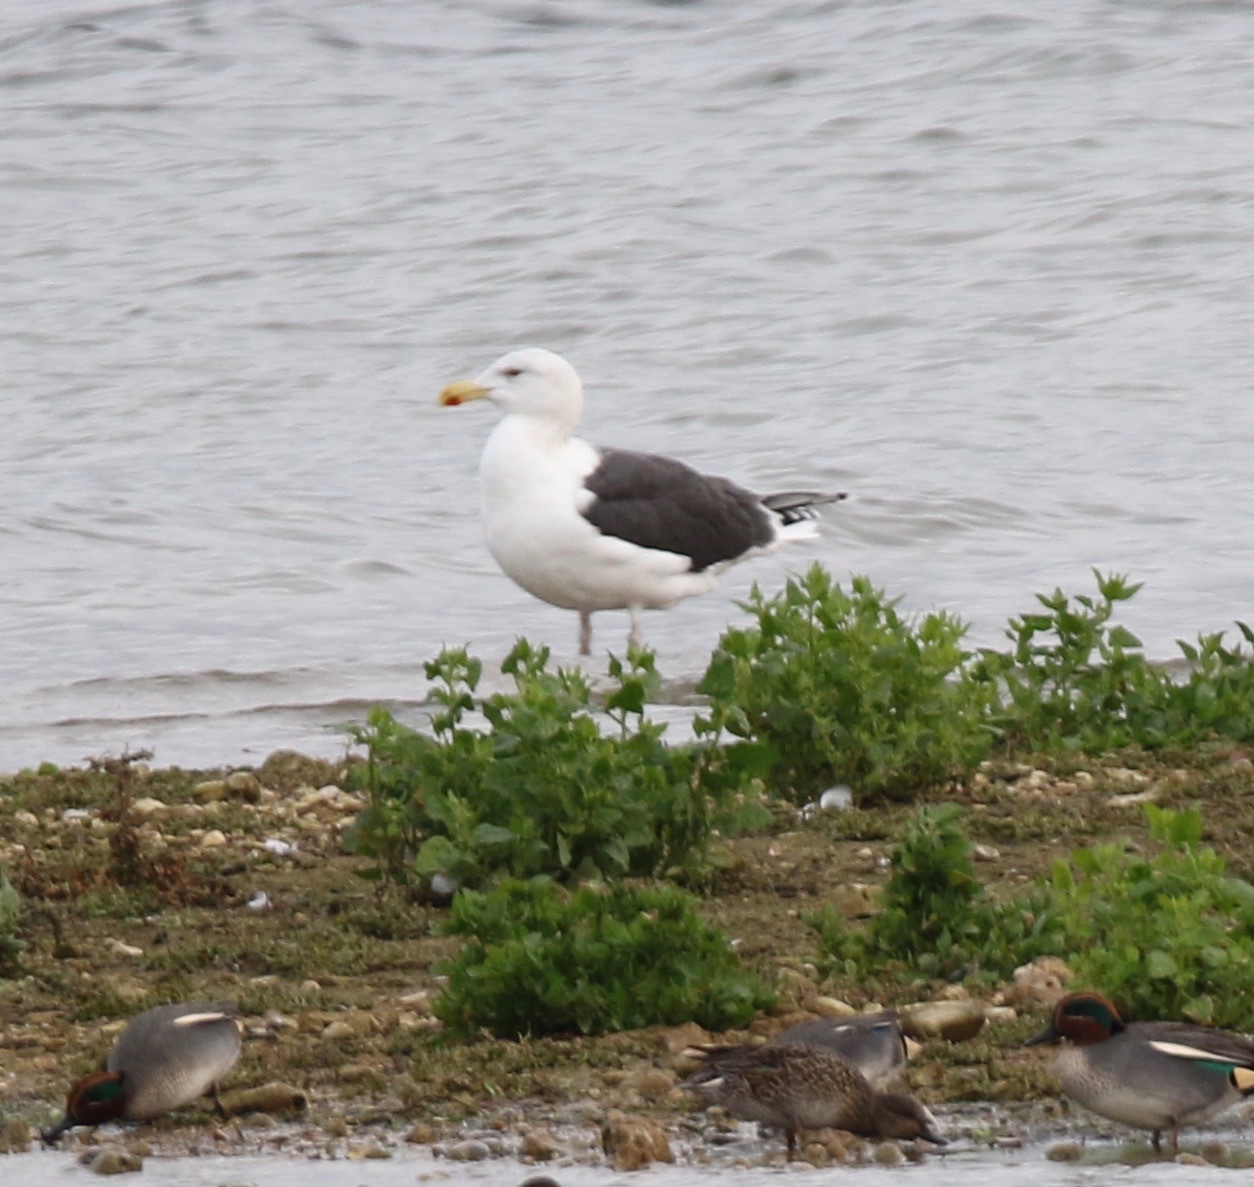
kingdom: Animalia
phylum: Chordata
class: Aves
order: Charadriiformes
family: Laridae
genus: Larus
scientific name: Larus marinus
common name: Great black-backed gull
